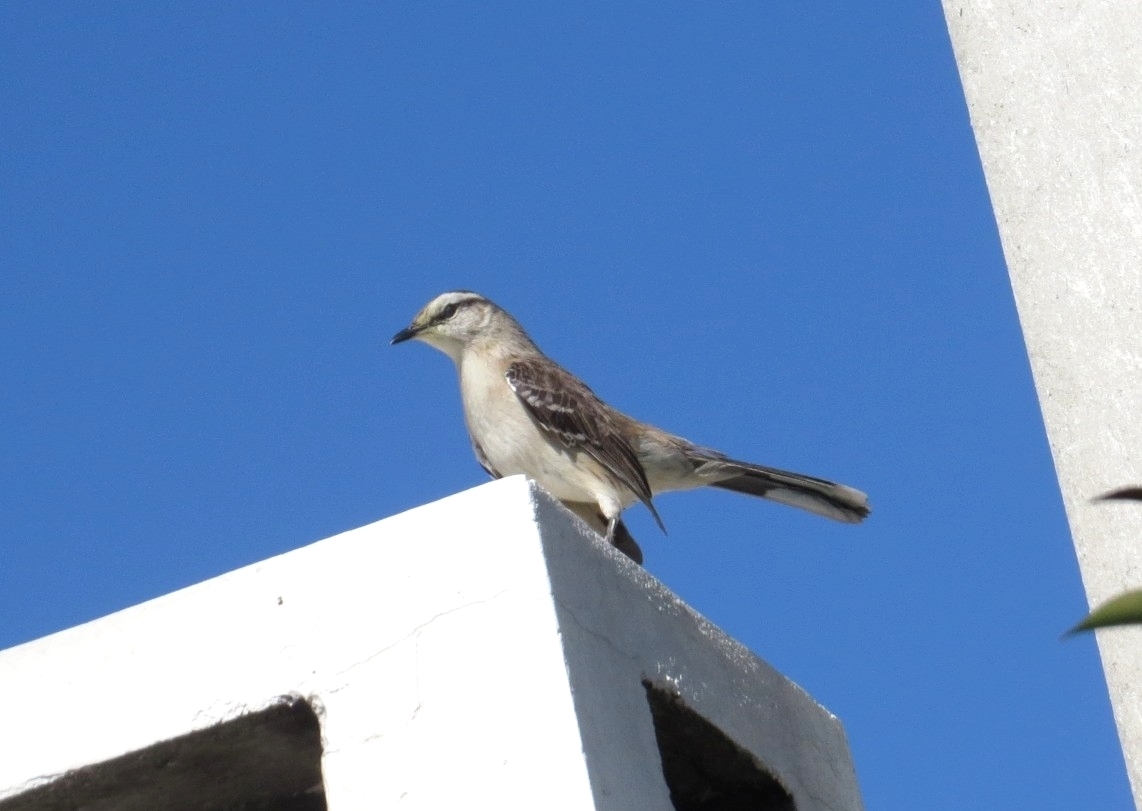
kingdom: Animalia
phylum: Chordata
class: Aves
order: Passeriformes
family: Mimidae
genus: Mimus
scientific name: Mimus saturninus
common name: Chalk-browed mockingbird
